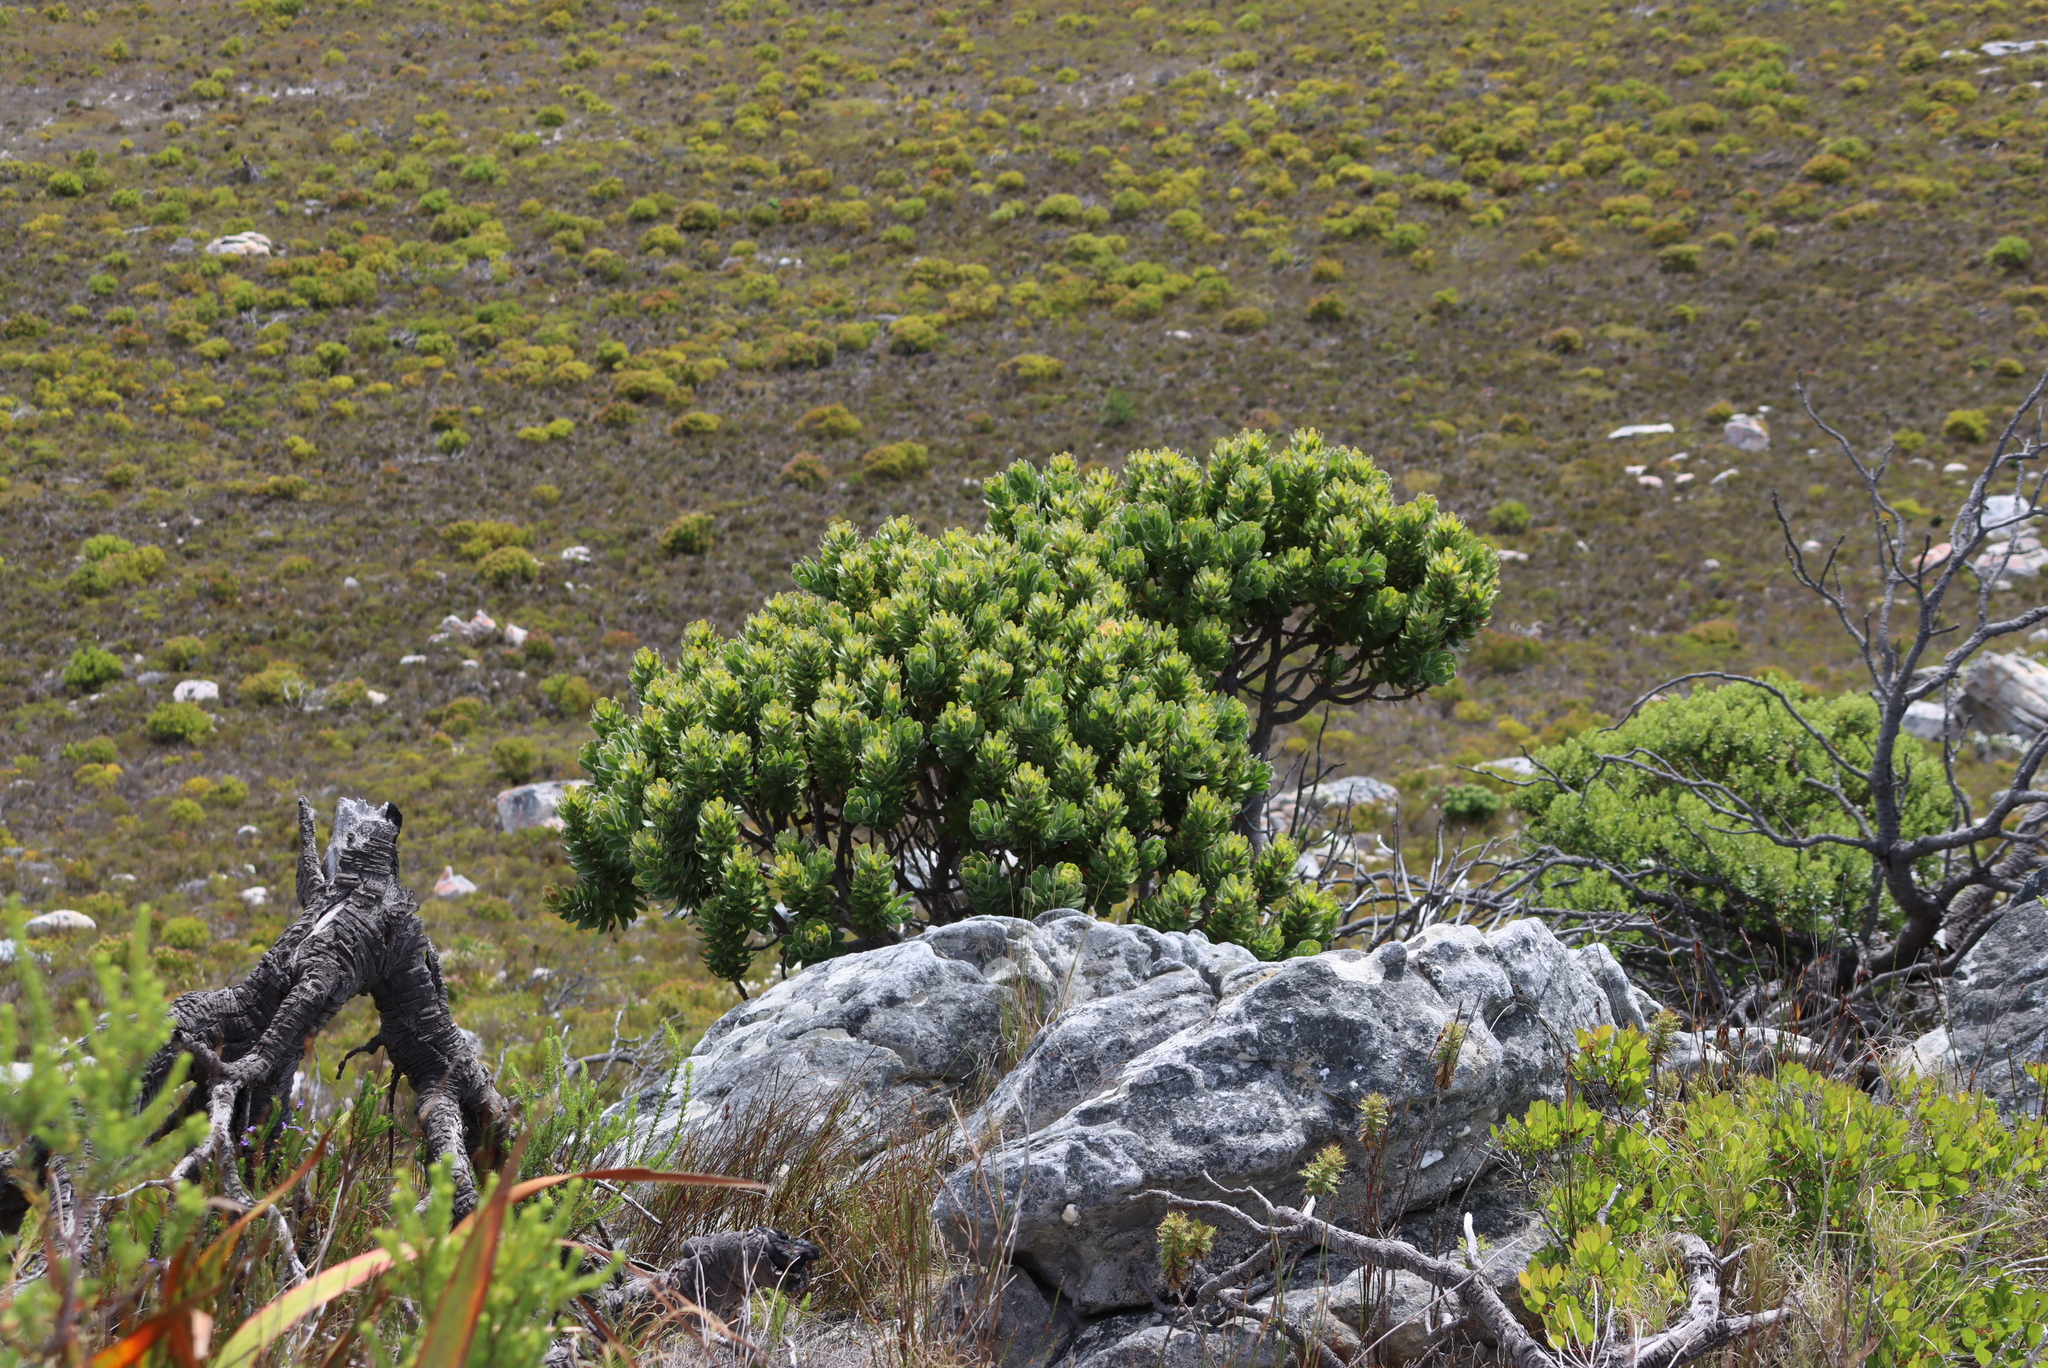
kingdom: Plantae
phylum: Tracheophyta
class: Magnoliopsida
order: Proteales
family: Proteaceae
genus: Mimetes
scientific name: Mimetes fimbriifolius
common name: Fringed bottlebrush
